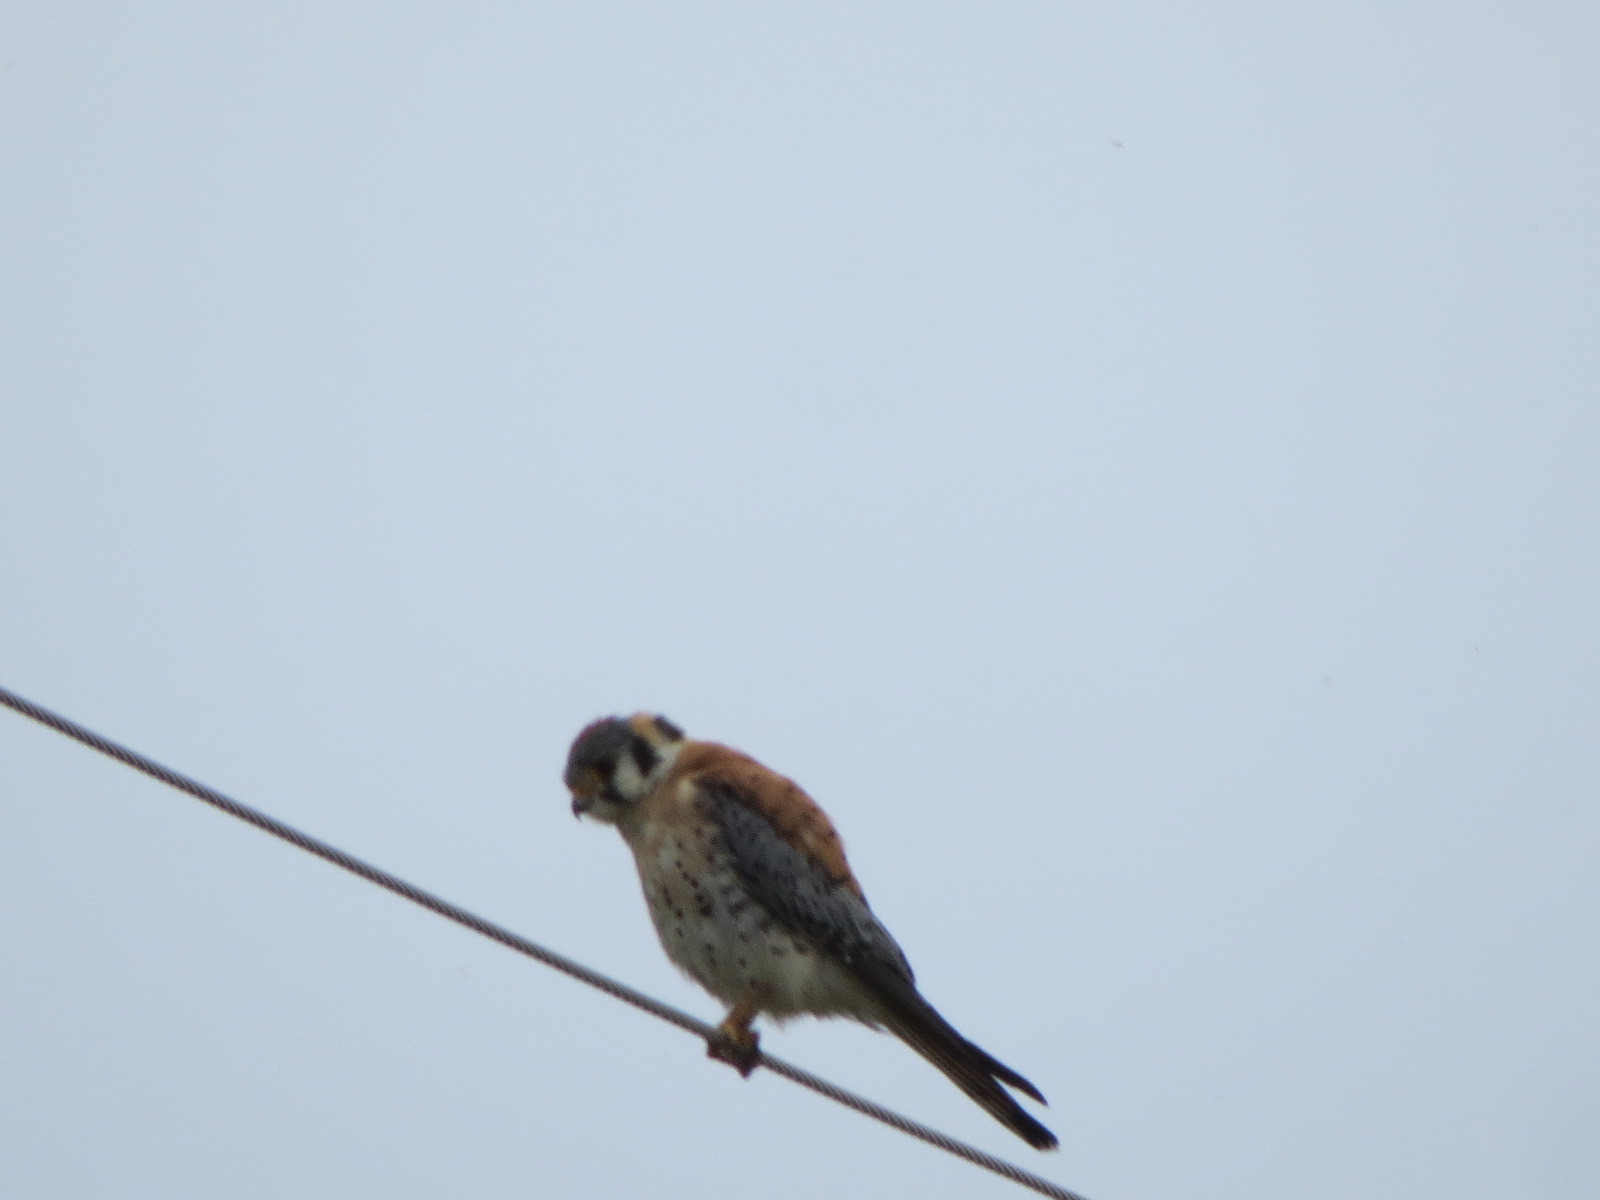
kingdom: Animalia
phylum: Chordata
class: Aves
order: Falconiformes
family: Falconidae
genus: Falco
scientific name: Falco sparverius
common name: American kestrel
